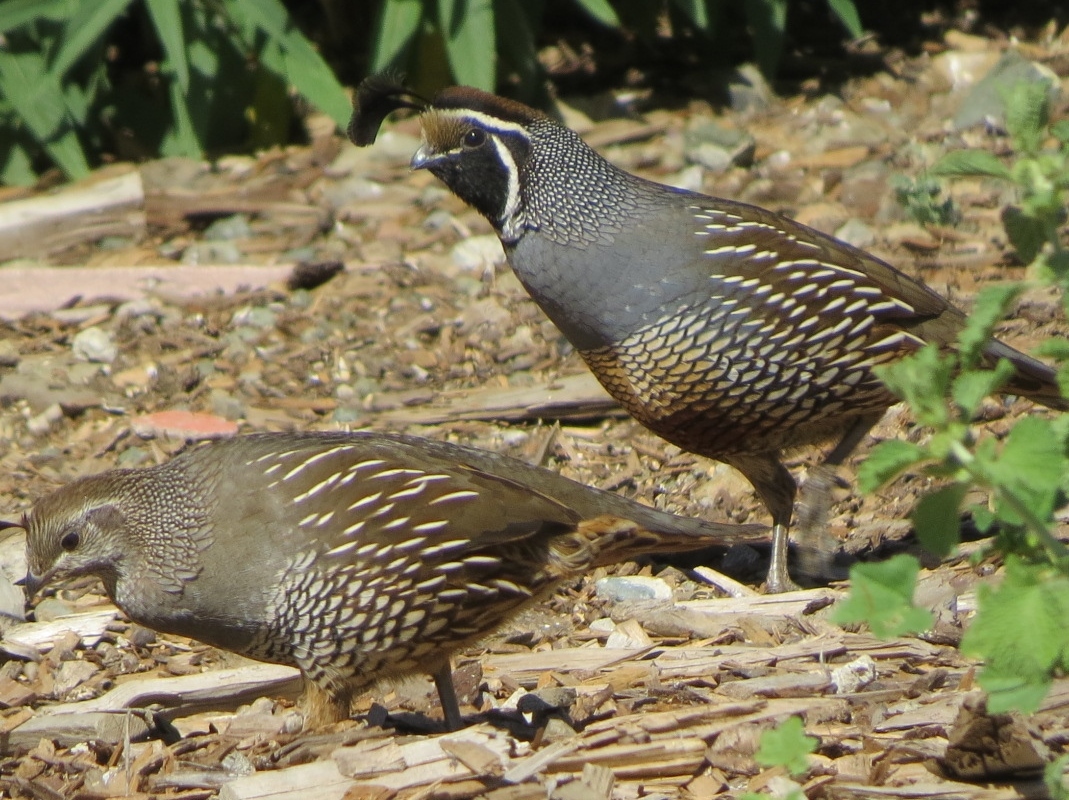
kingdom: Animalia
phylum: Chordata
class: Aves
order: Galliformes
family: Odontophoridae
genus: Callipepla
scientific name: Callipepla californica
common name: California quail
